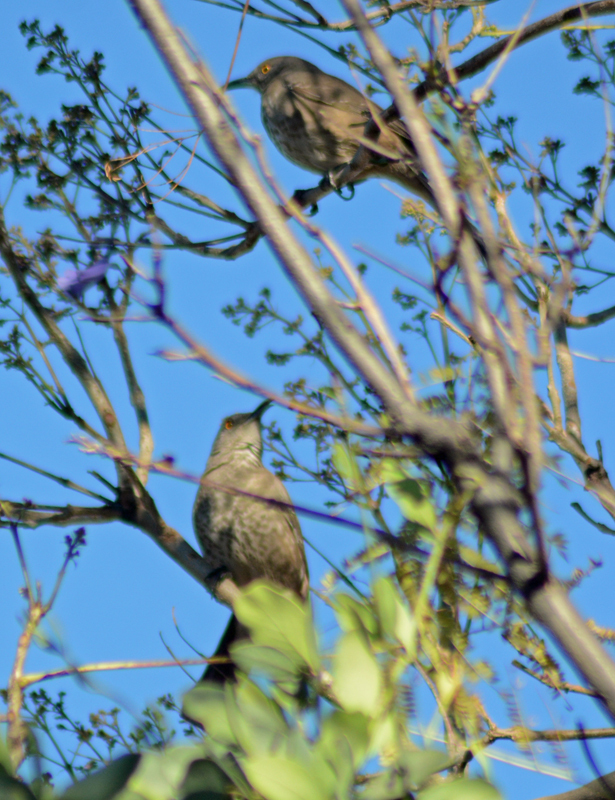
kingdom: Animalia
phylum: Chordata
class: Aves
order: Passeriformes
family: Mimidae
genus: Toxostoma
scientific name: Toxostoma curvirostre
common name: Curve-billed thrasher
